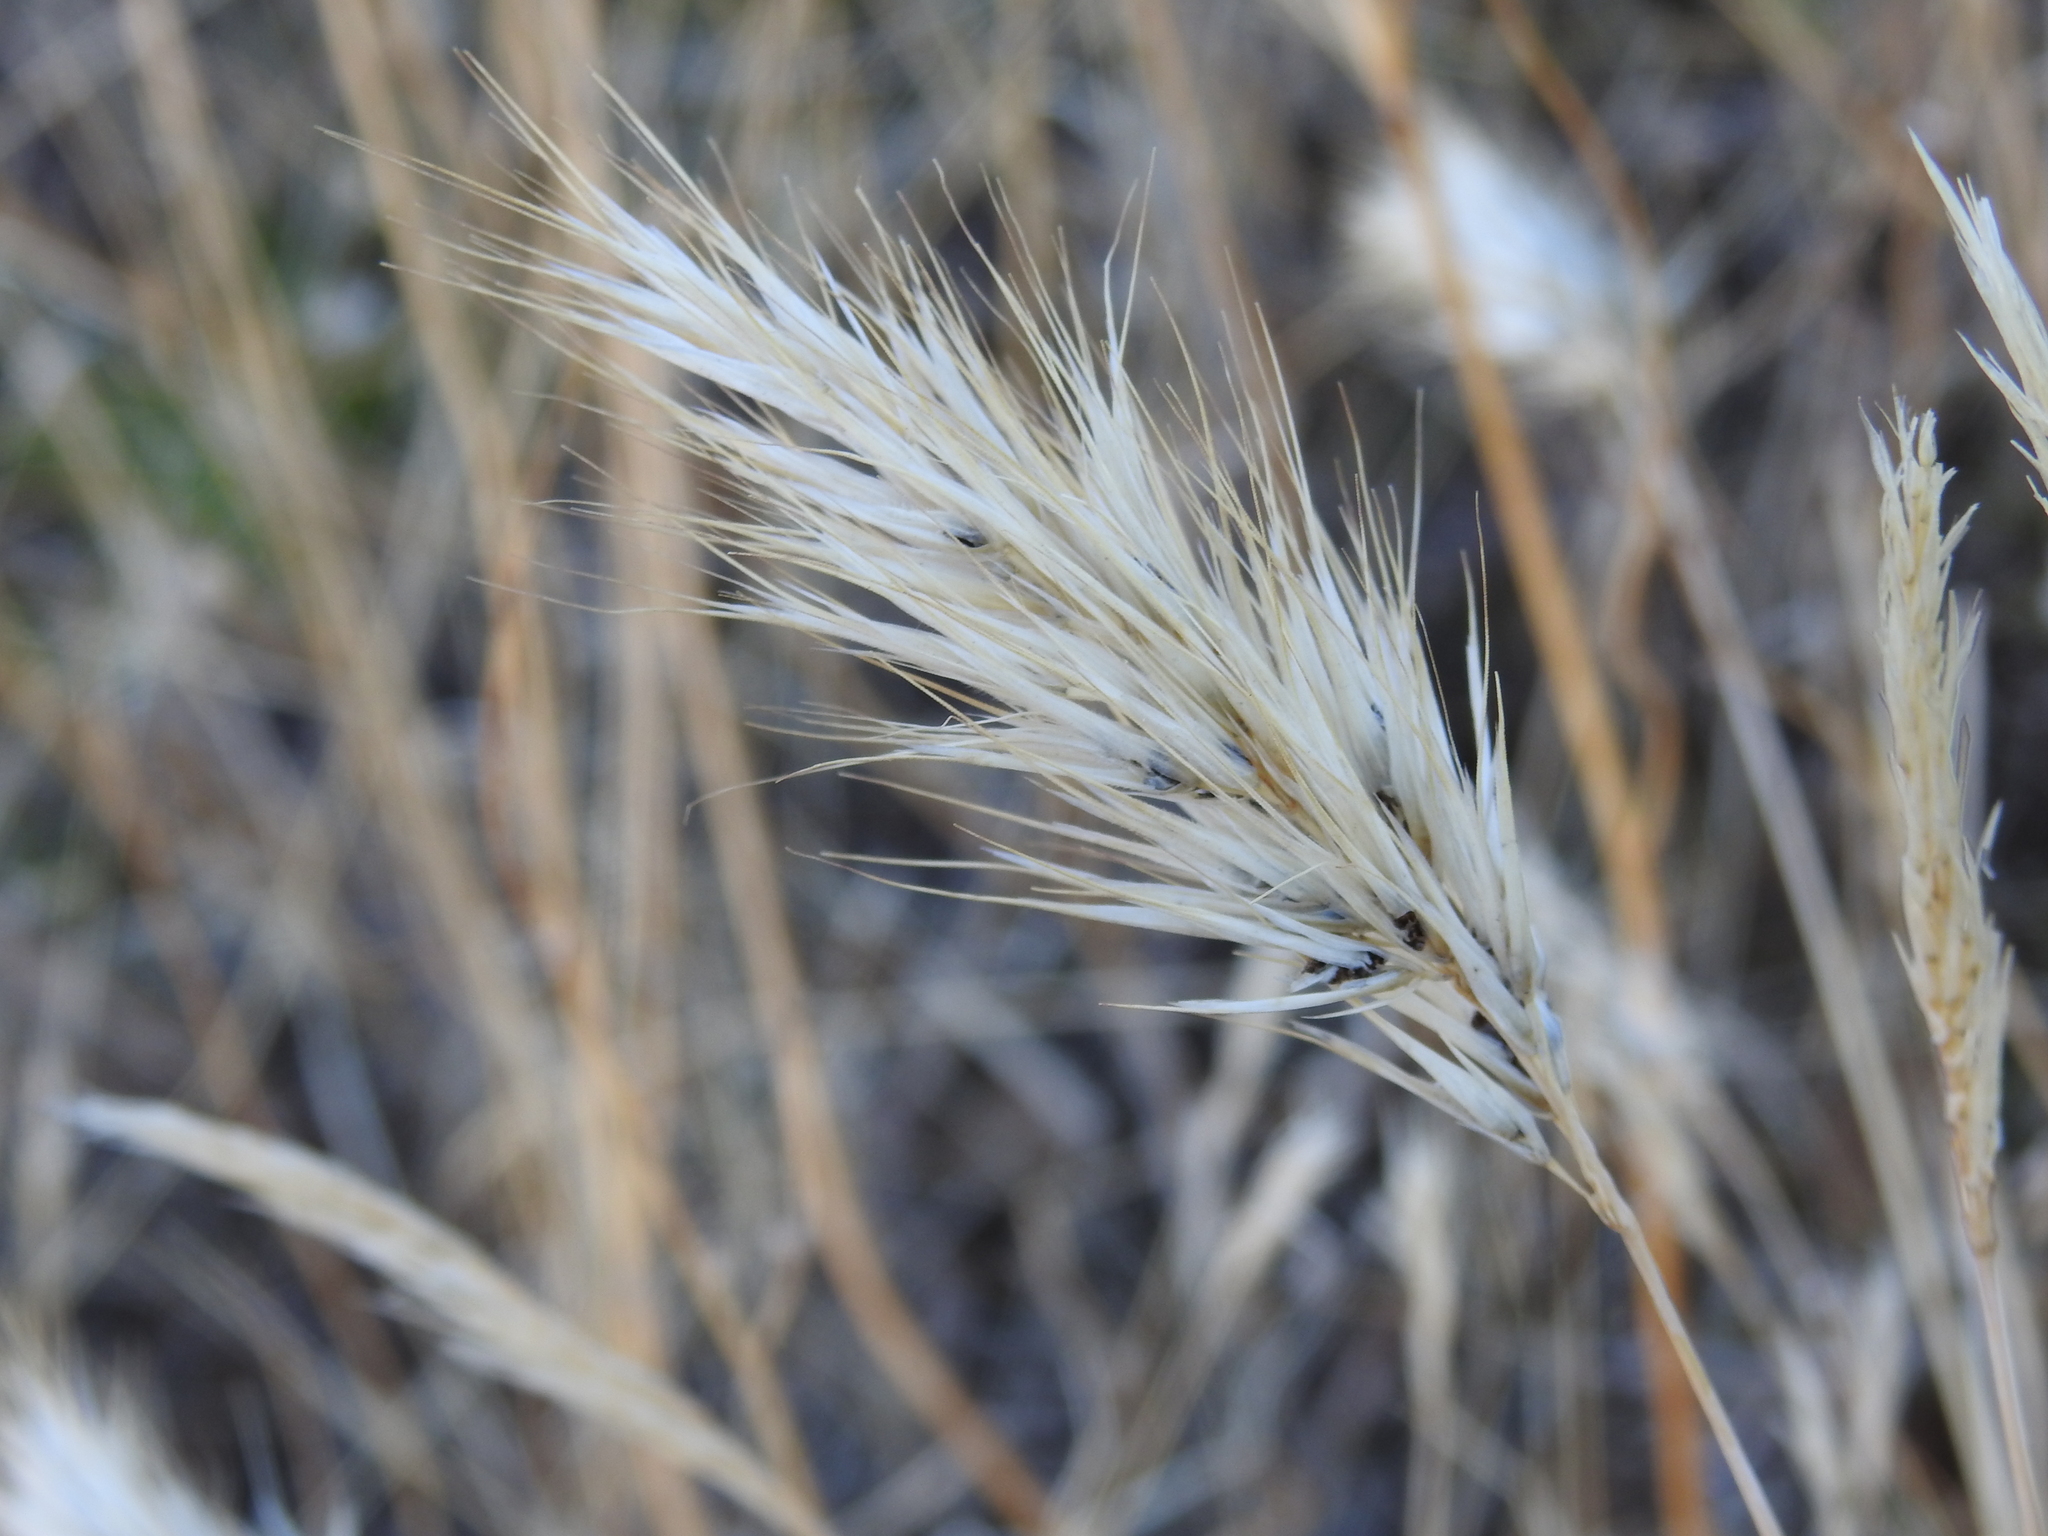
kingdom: Plantae
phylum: Tracheophyta
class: Liliopsida
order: Poales
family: Poaceae
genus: Bromus
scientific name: Bromus rubens
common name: Red brome
